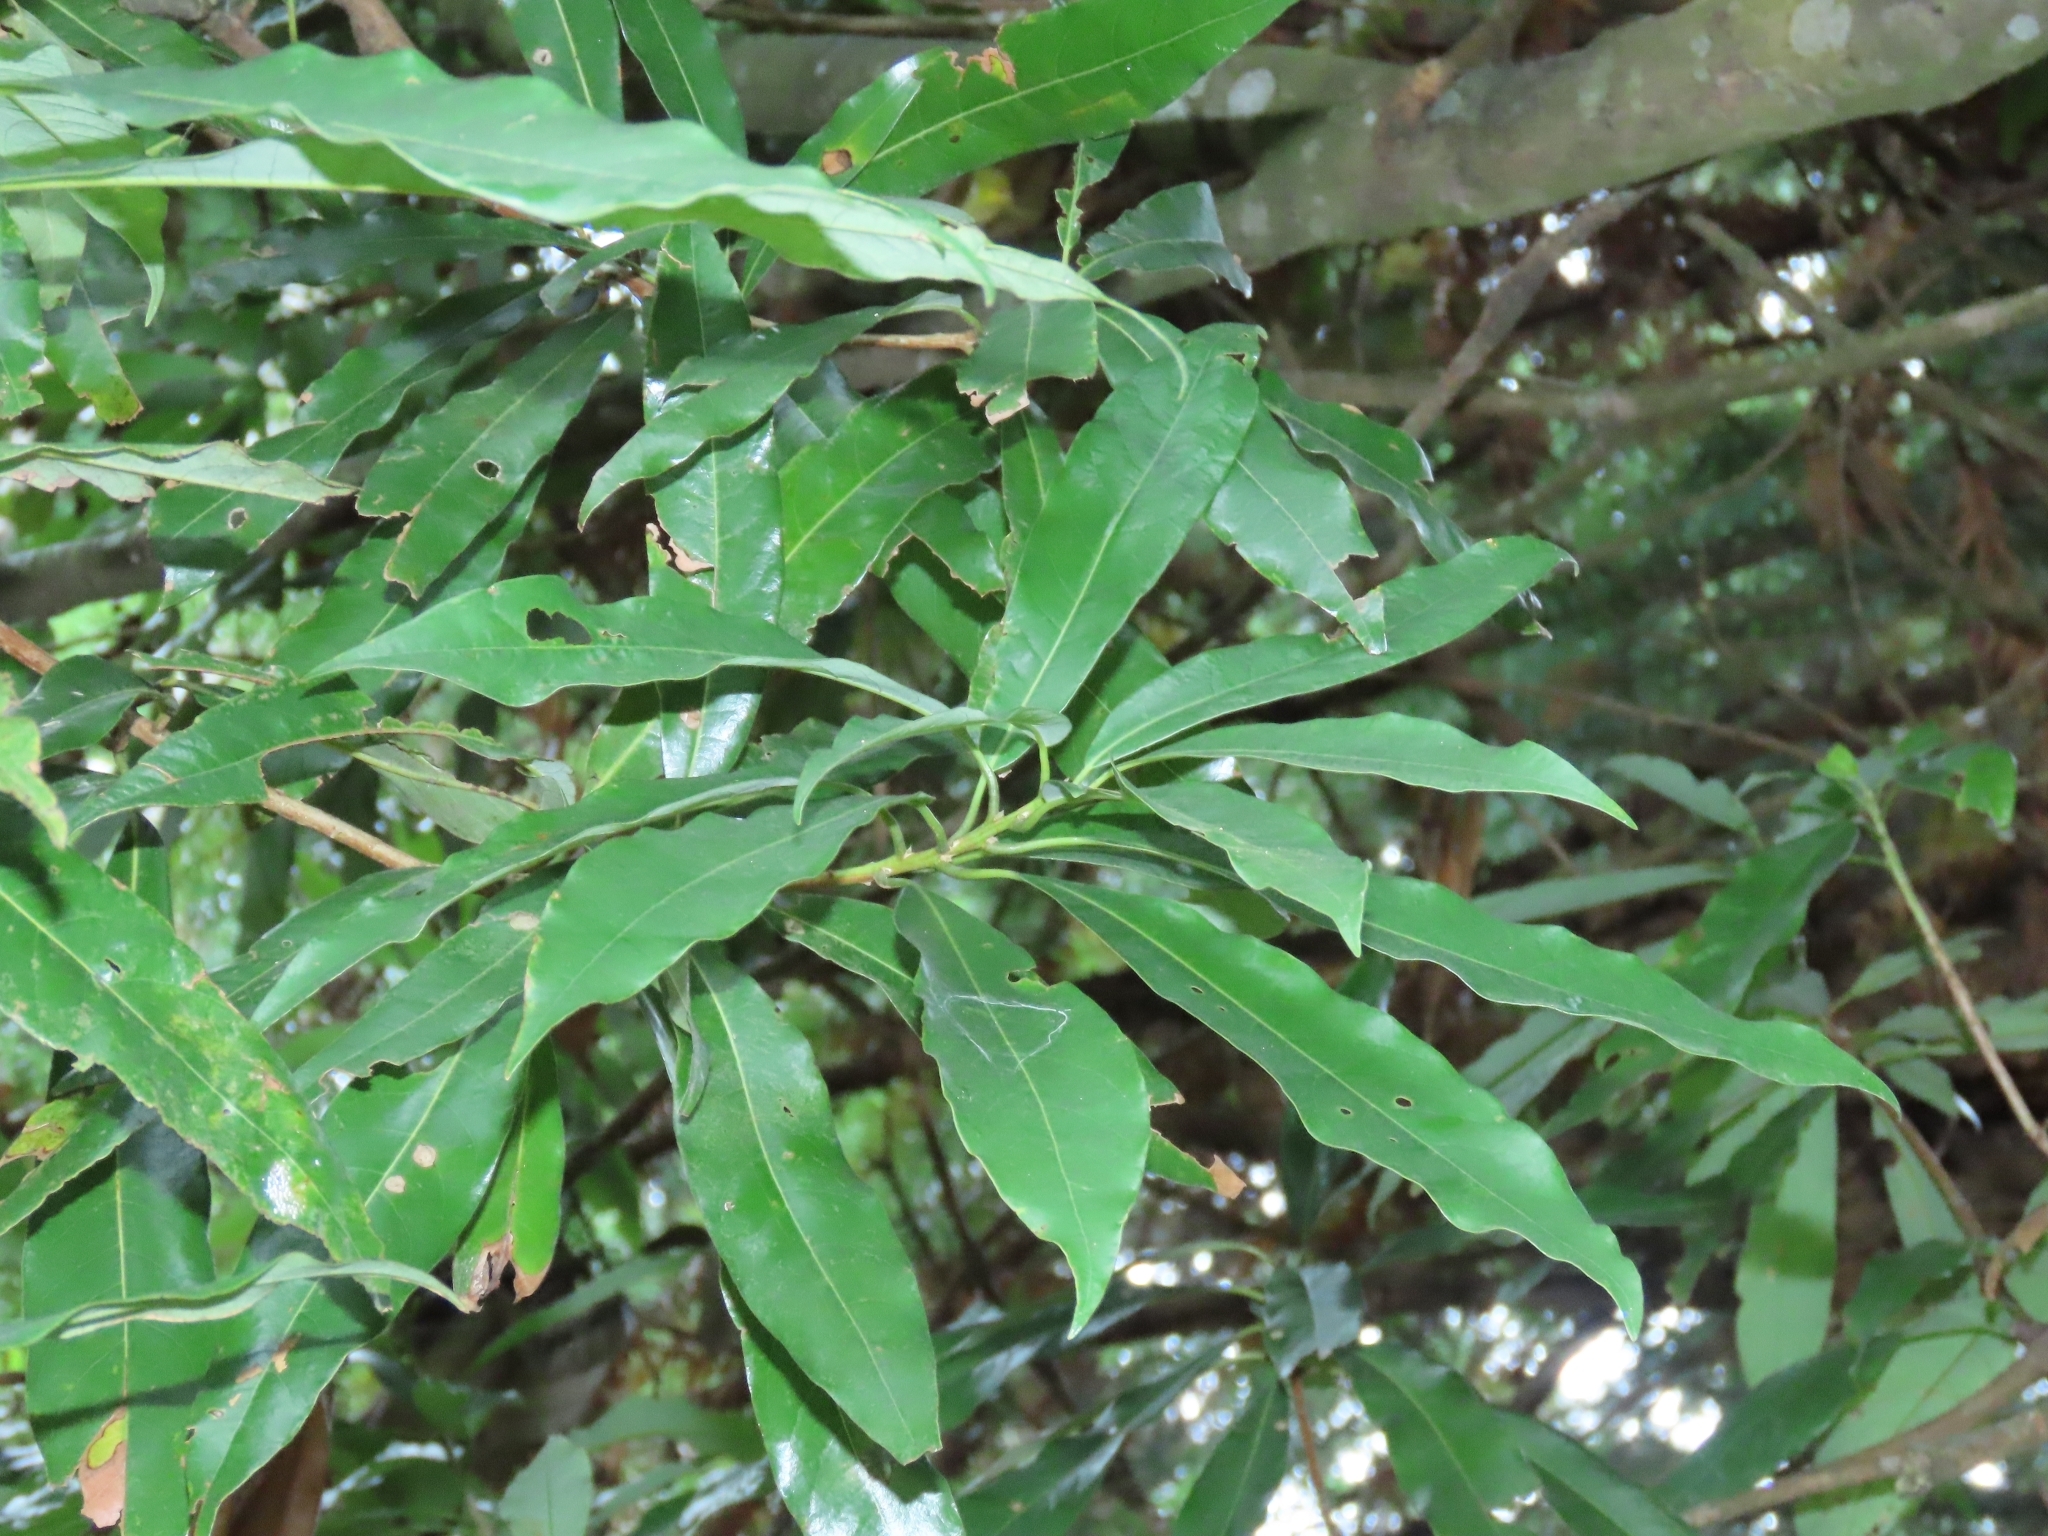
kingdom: Plantae
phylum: Tracheophyta
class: Magnoliopsida
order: Laurales
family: Lauraceae
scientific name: Lauraceae
